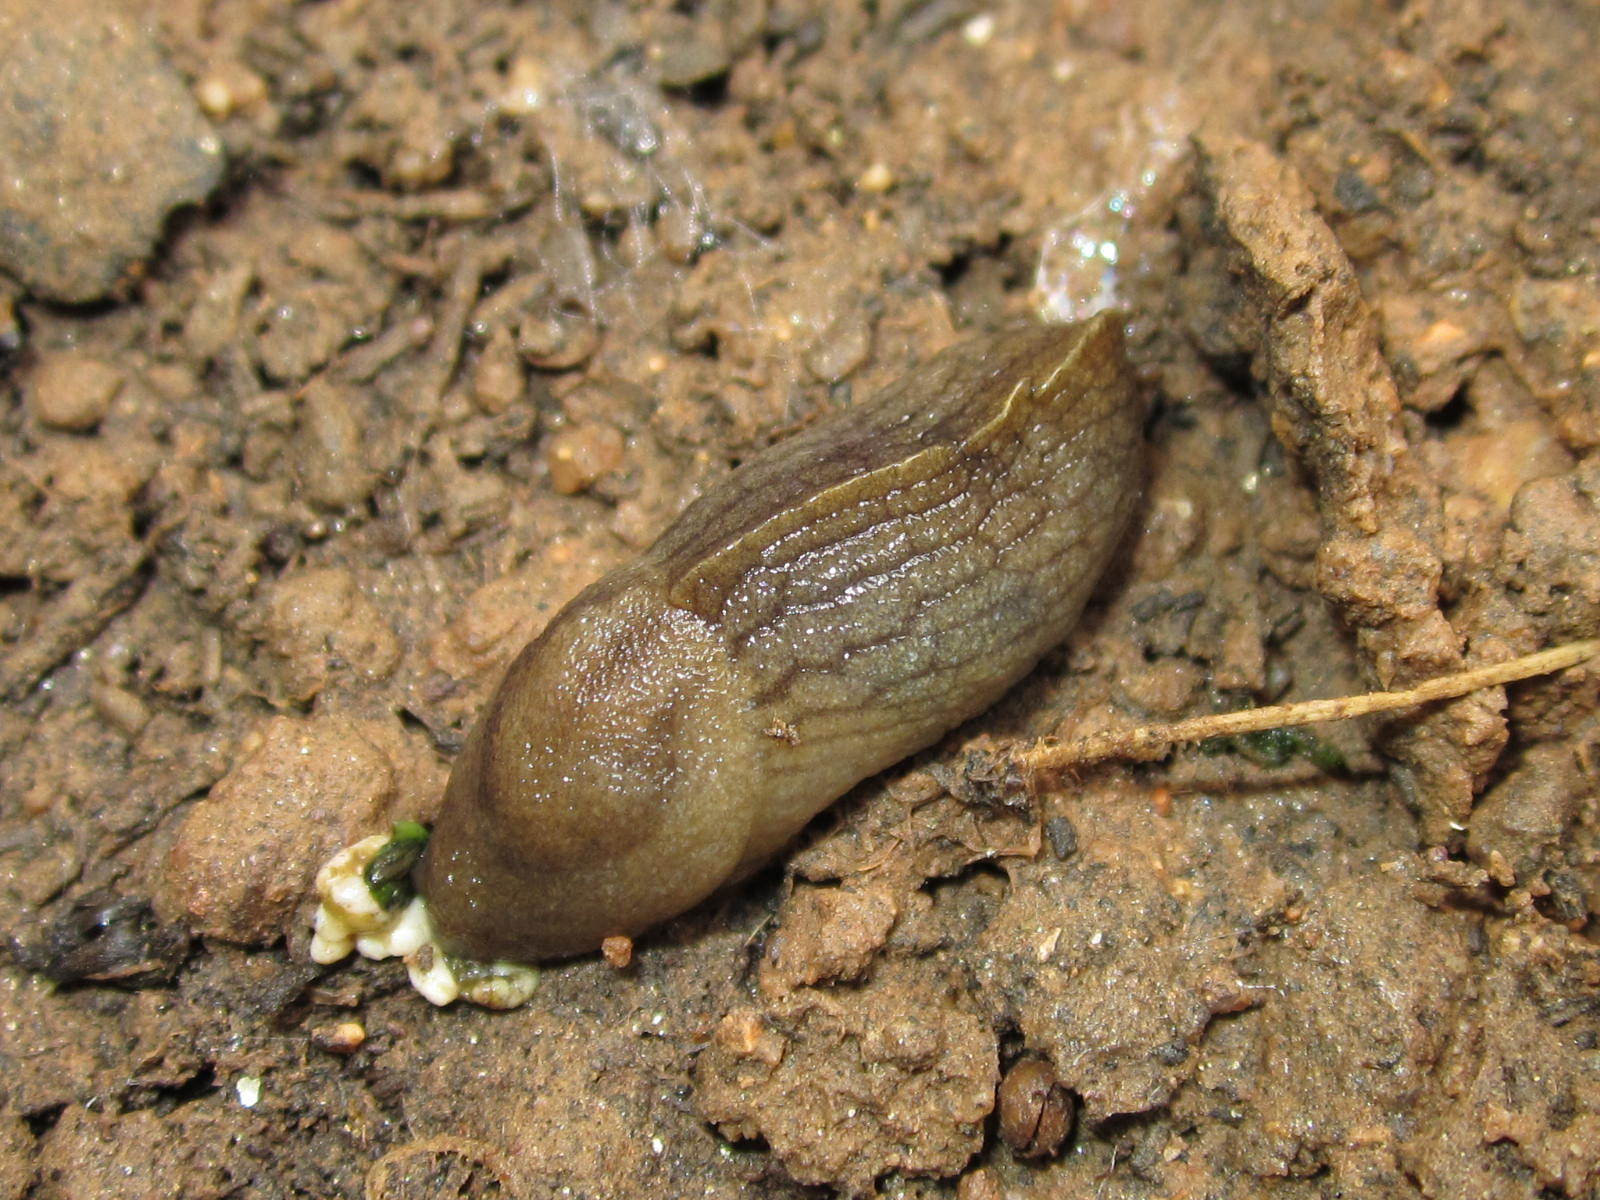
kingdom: Animalia
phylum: Mollusca
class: Gastropoda
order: Stylommatophora
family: Milacidae
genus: Milax
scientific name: Milax gagates
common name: Greenhouse slug
